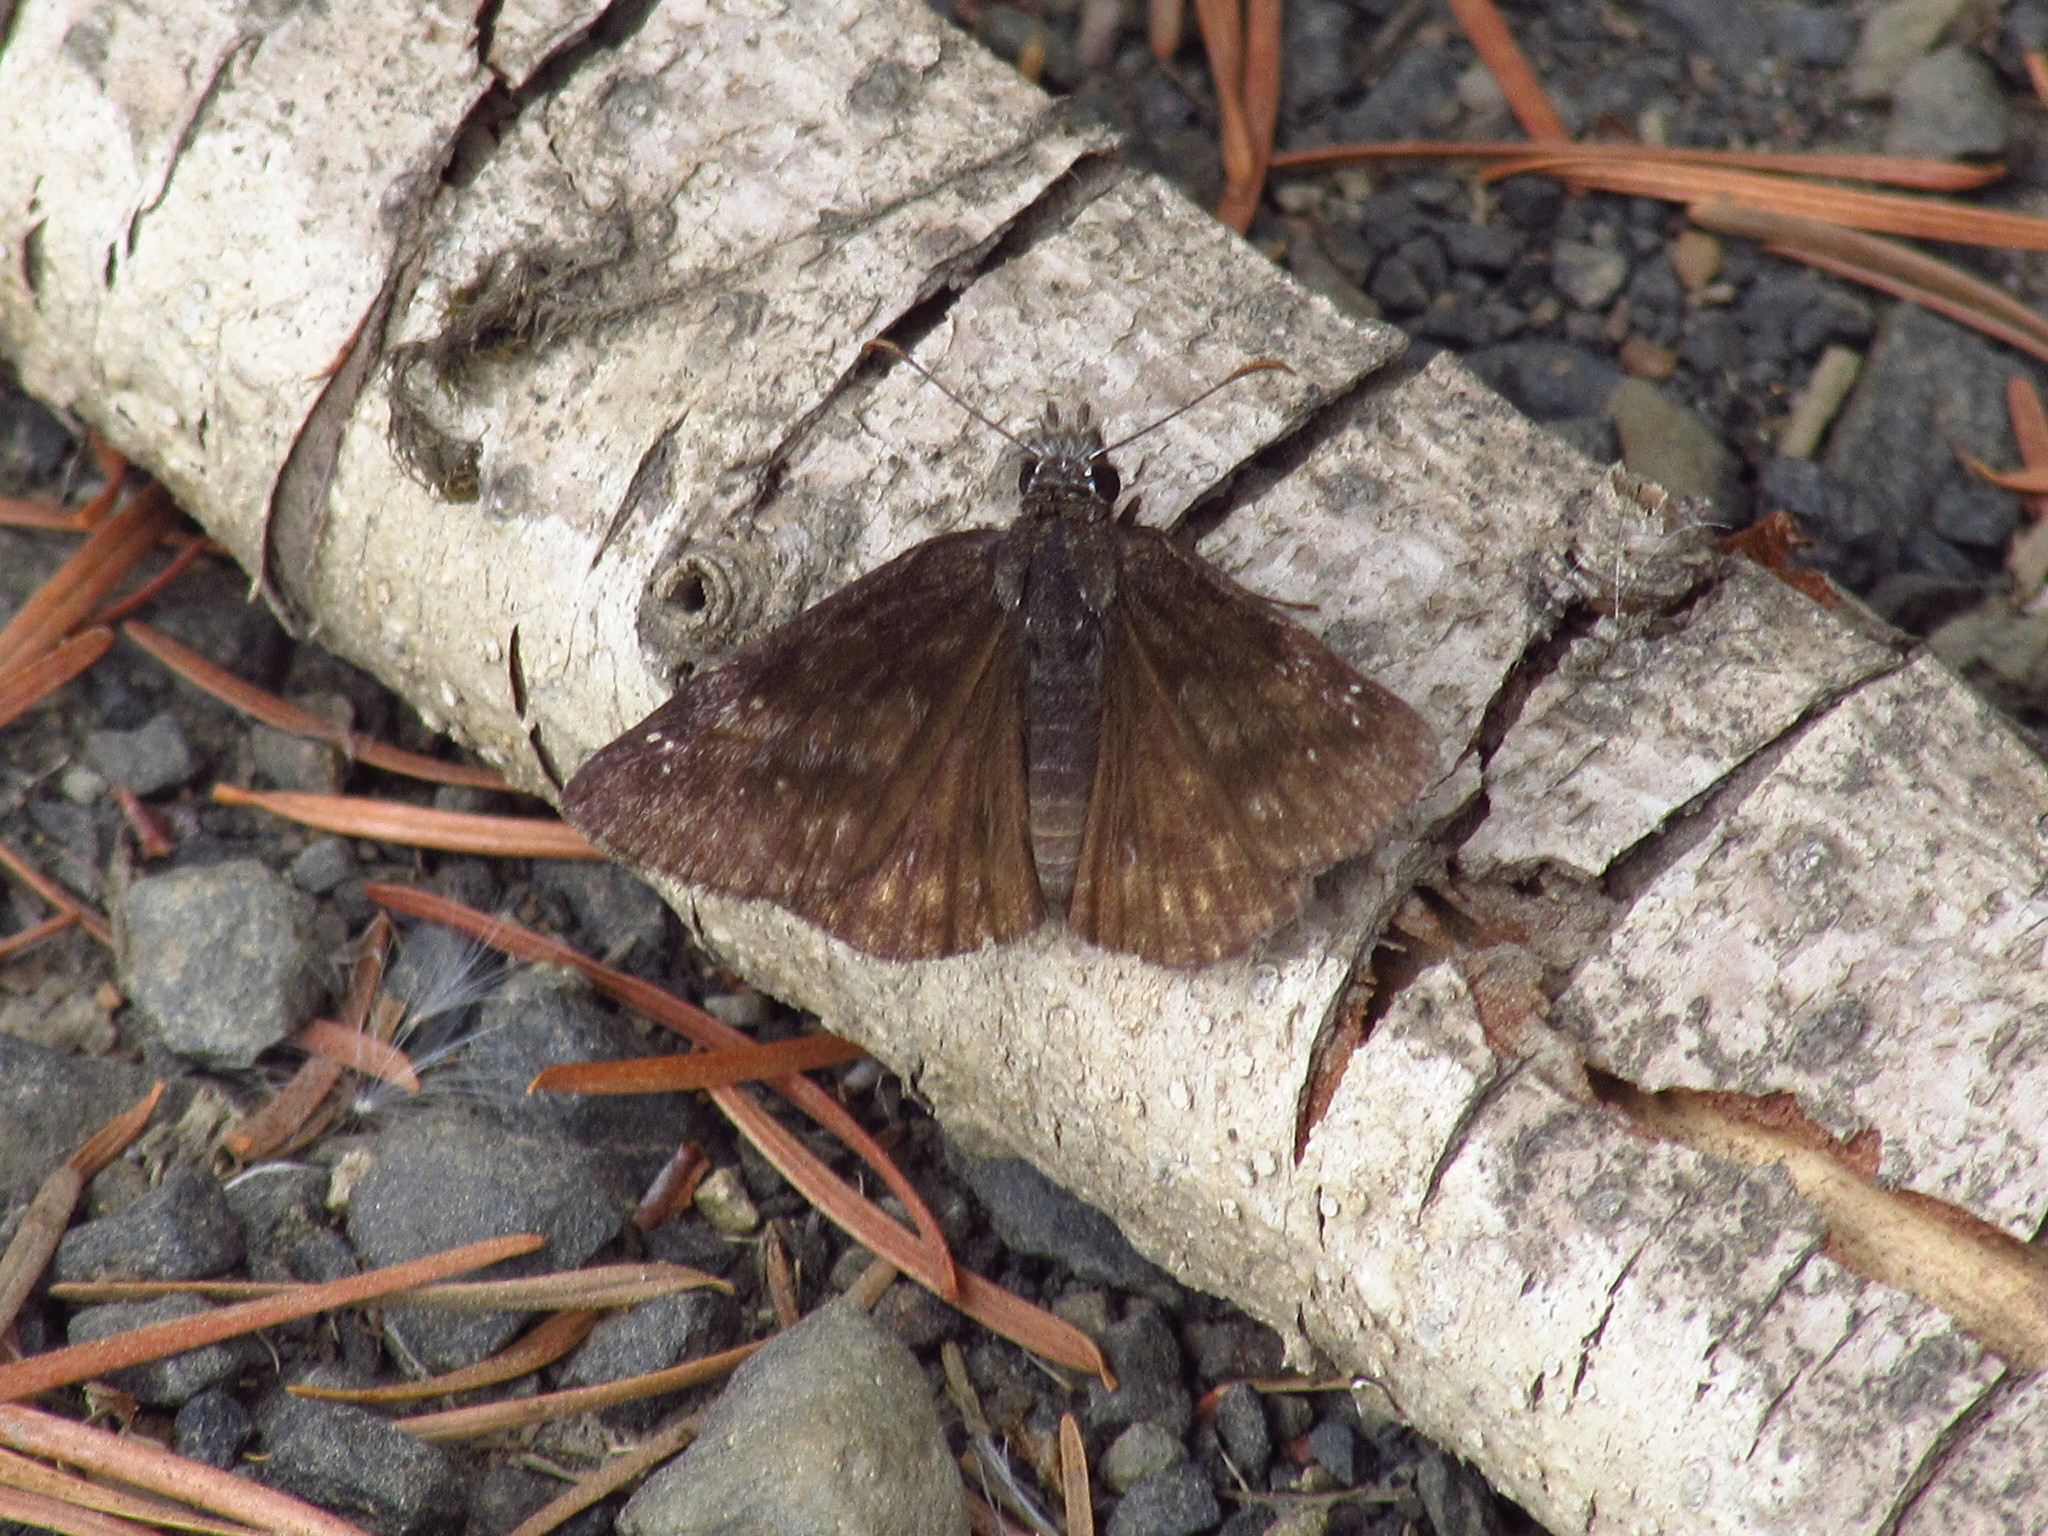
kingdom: Animalia
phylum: Arthropoda
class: Insecta
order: Lepidoptera
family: Hesperiidae
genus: Erynnis
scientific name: Erynnis persius
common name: Persius duskywing
